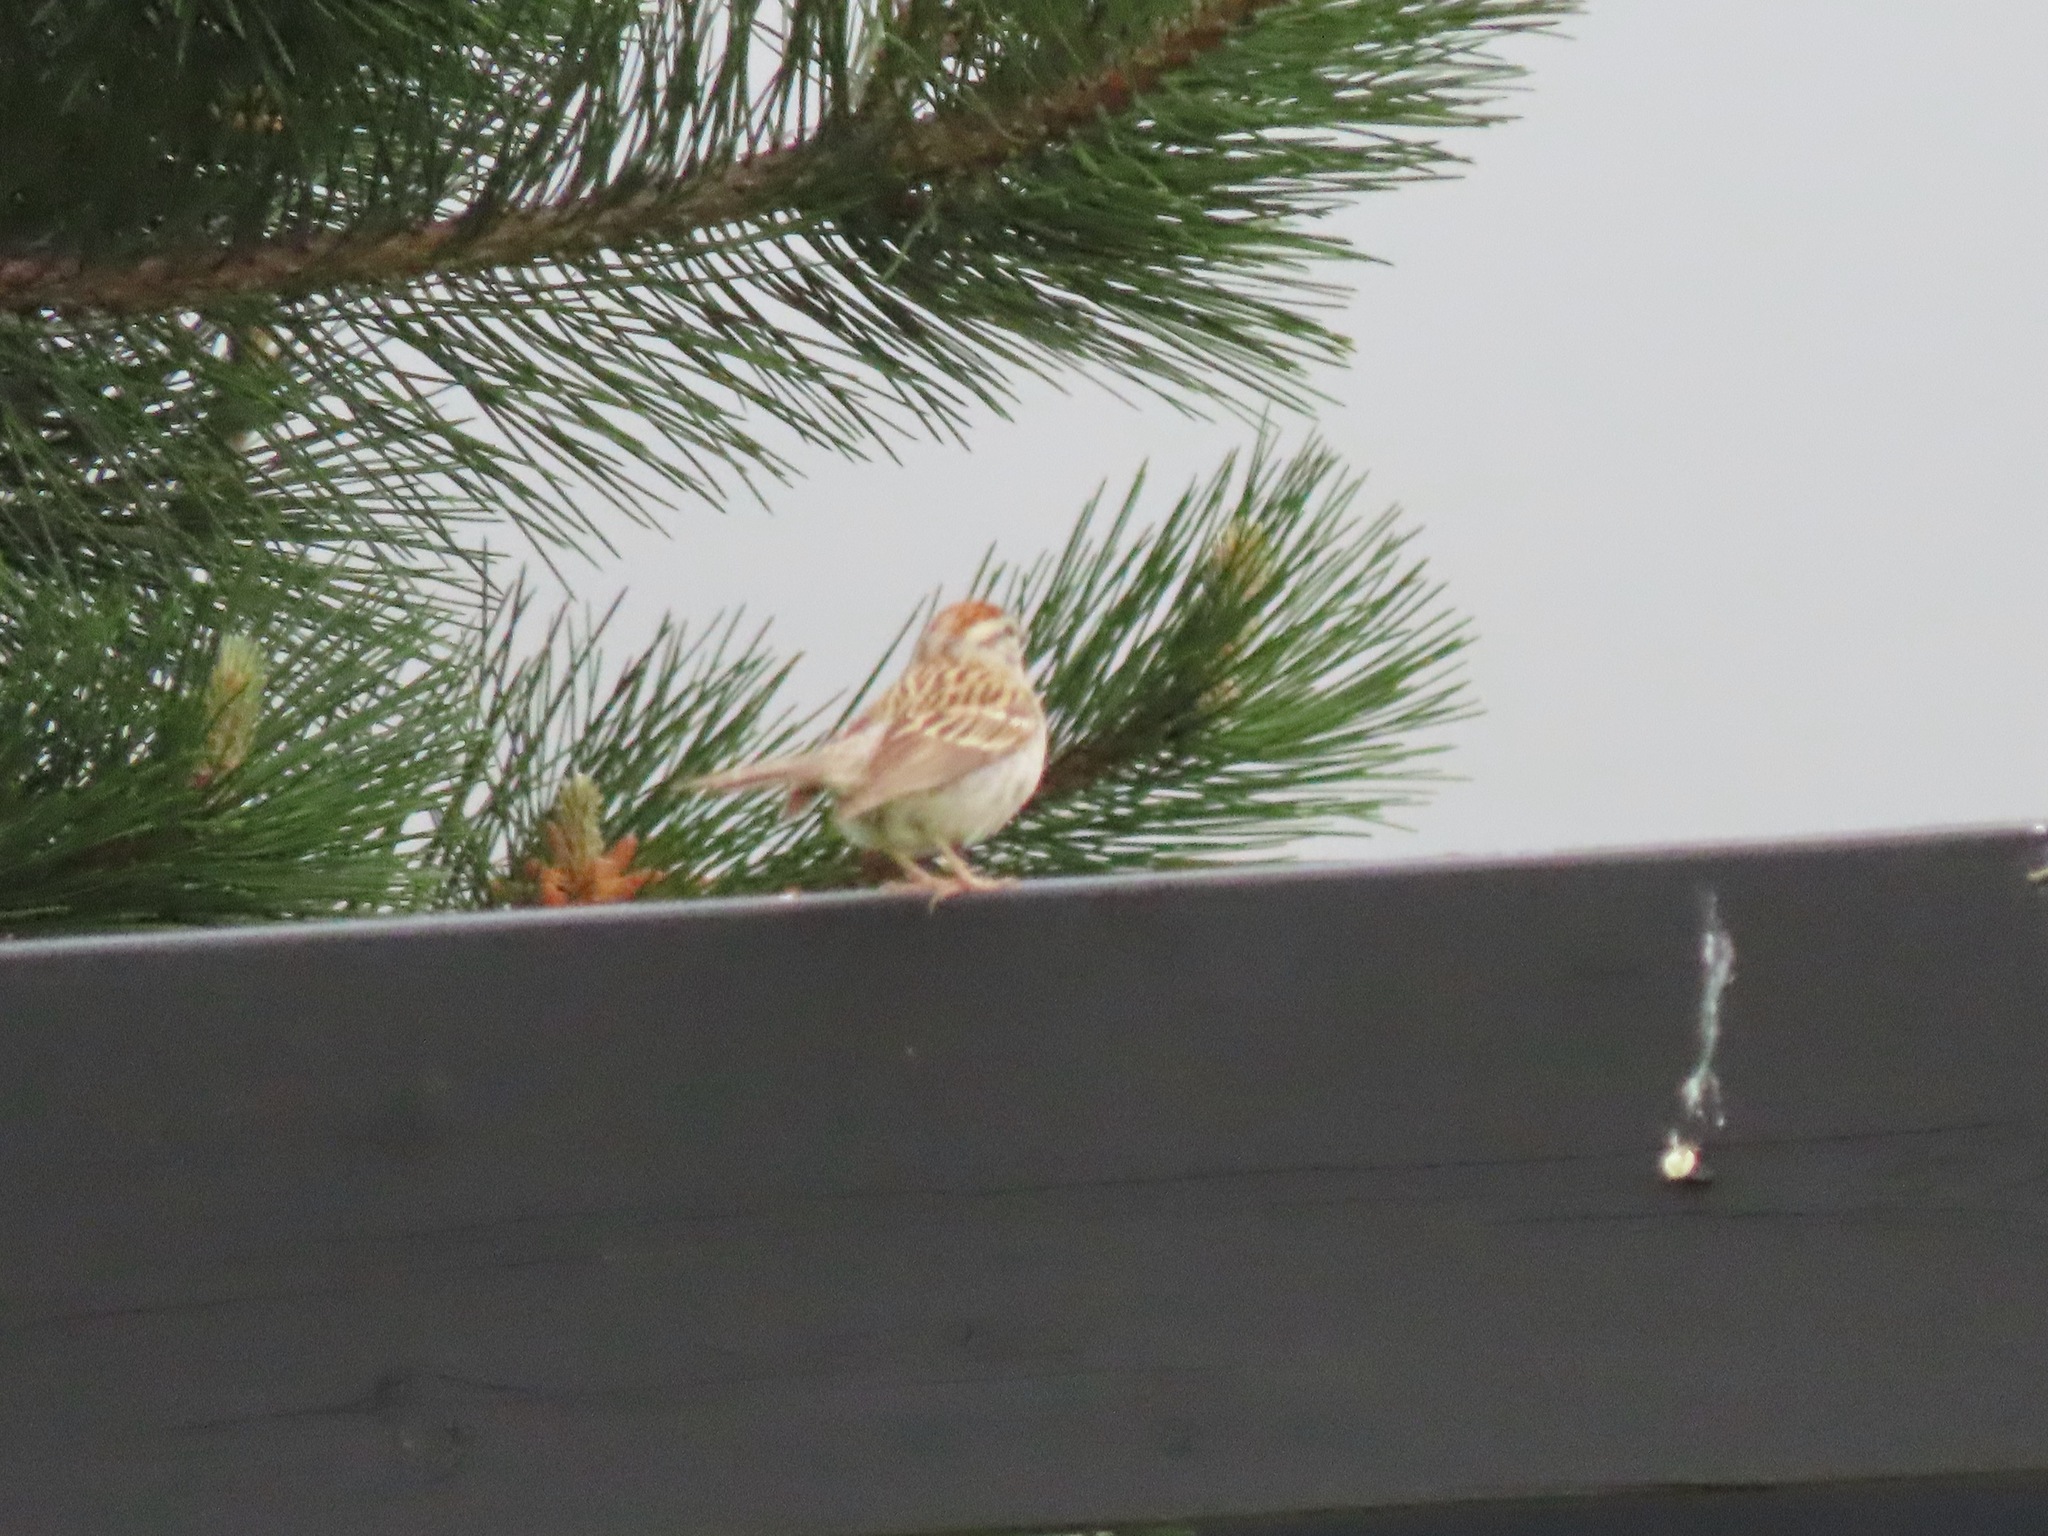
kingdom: Animalia
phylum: Chordata
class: Aves
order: Passeriformes
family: Passerellidae
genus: Spizella
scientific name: Spizella passerina
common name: Chipping sparrow
